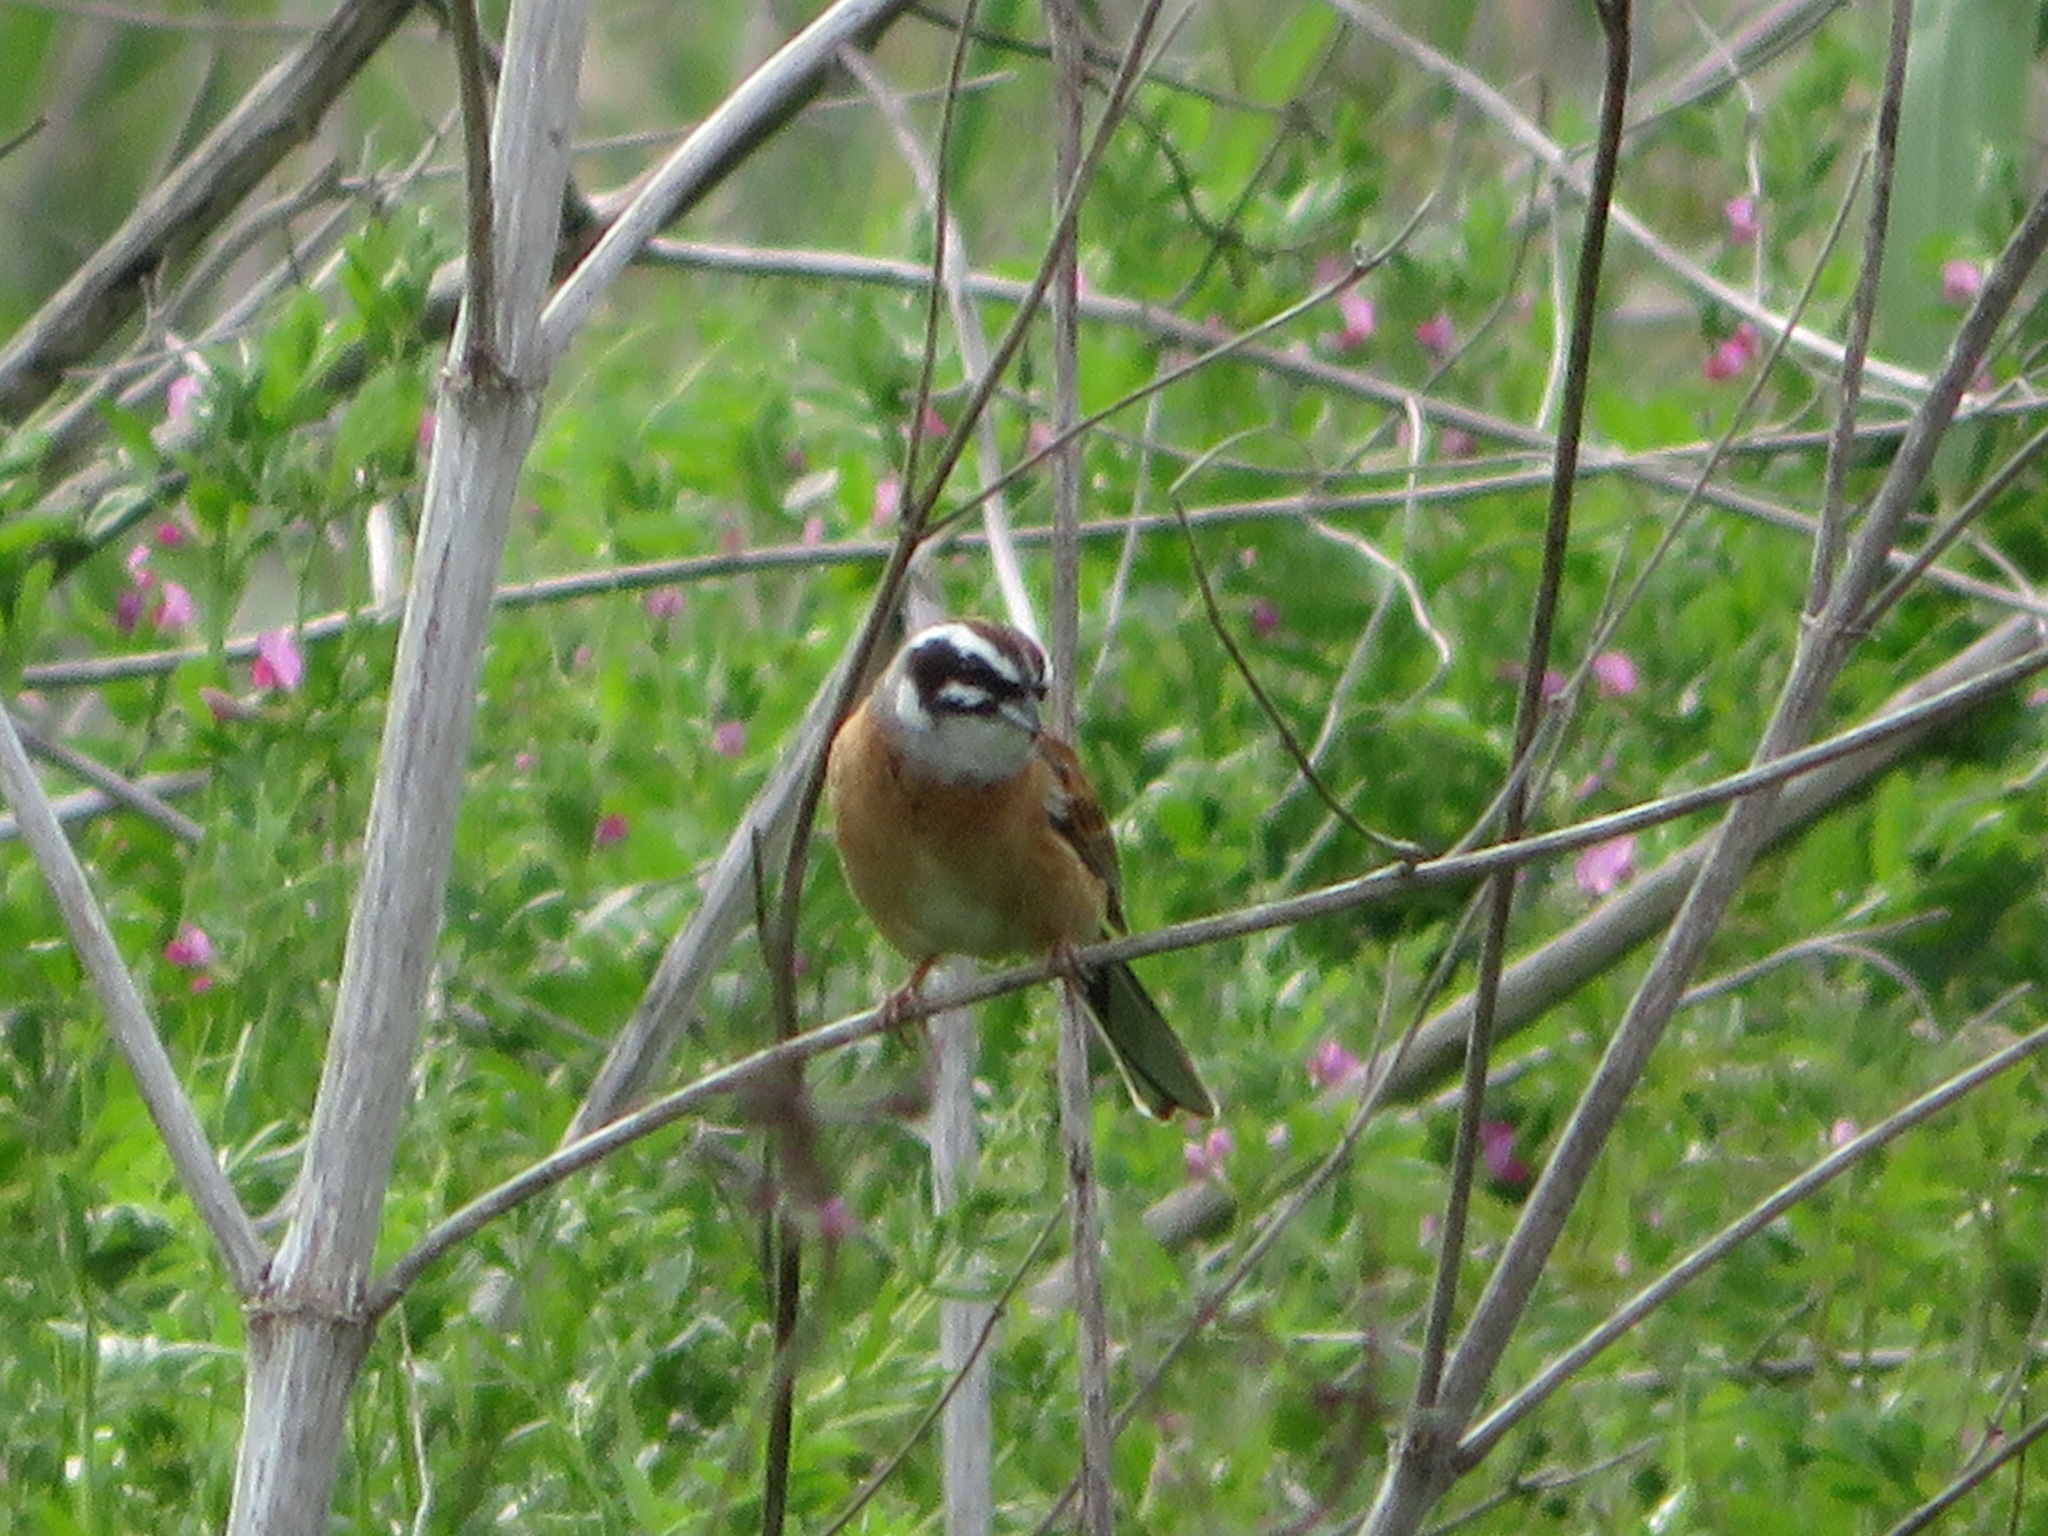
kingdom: Animalia
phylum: Chordata
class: Aves
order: Passeriformes
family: Emberizidae
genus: Emberiza
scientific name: Emberiza cioides
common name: Meadow bunting
